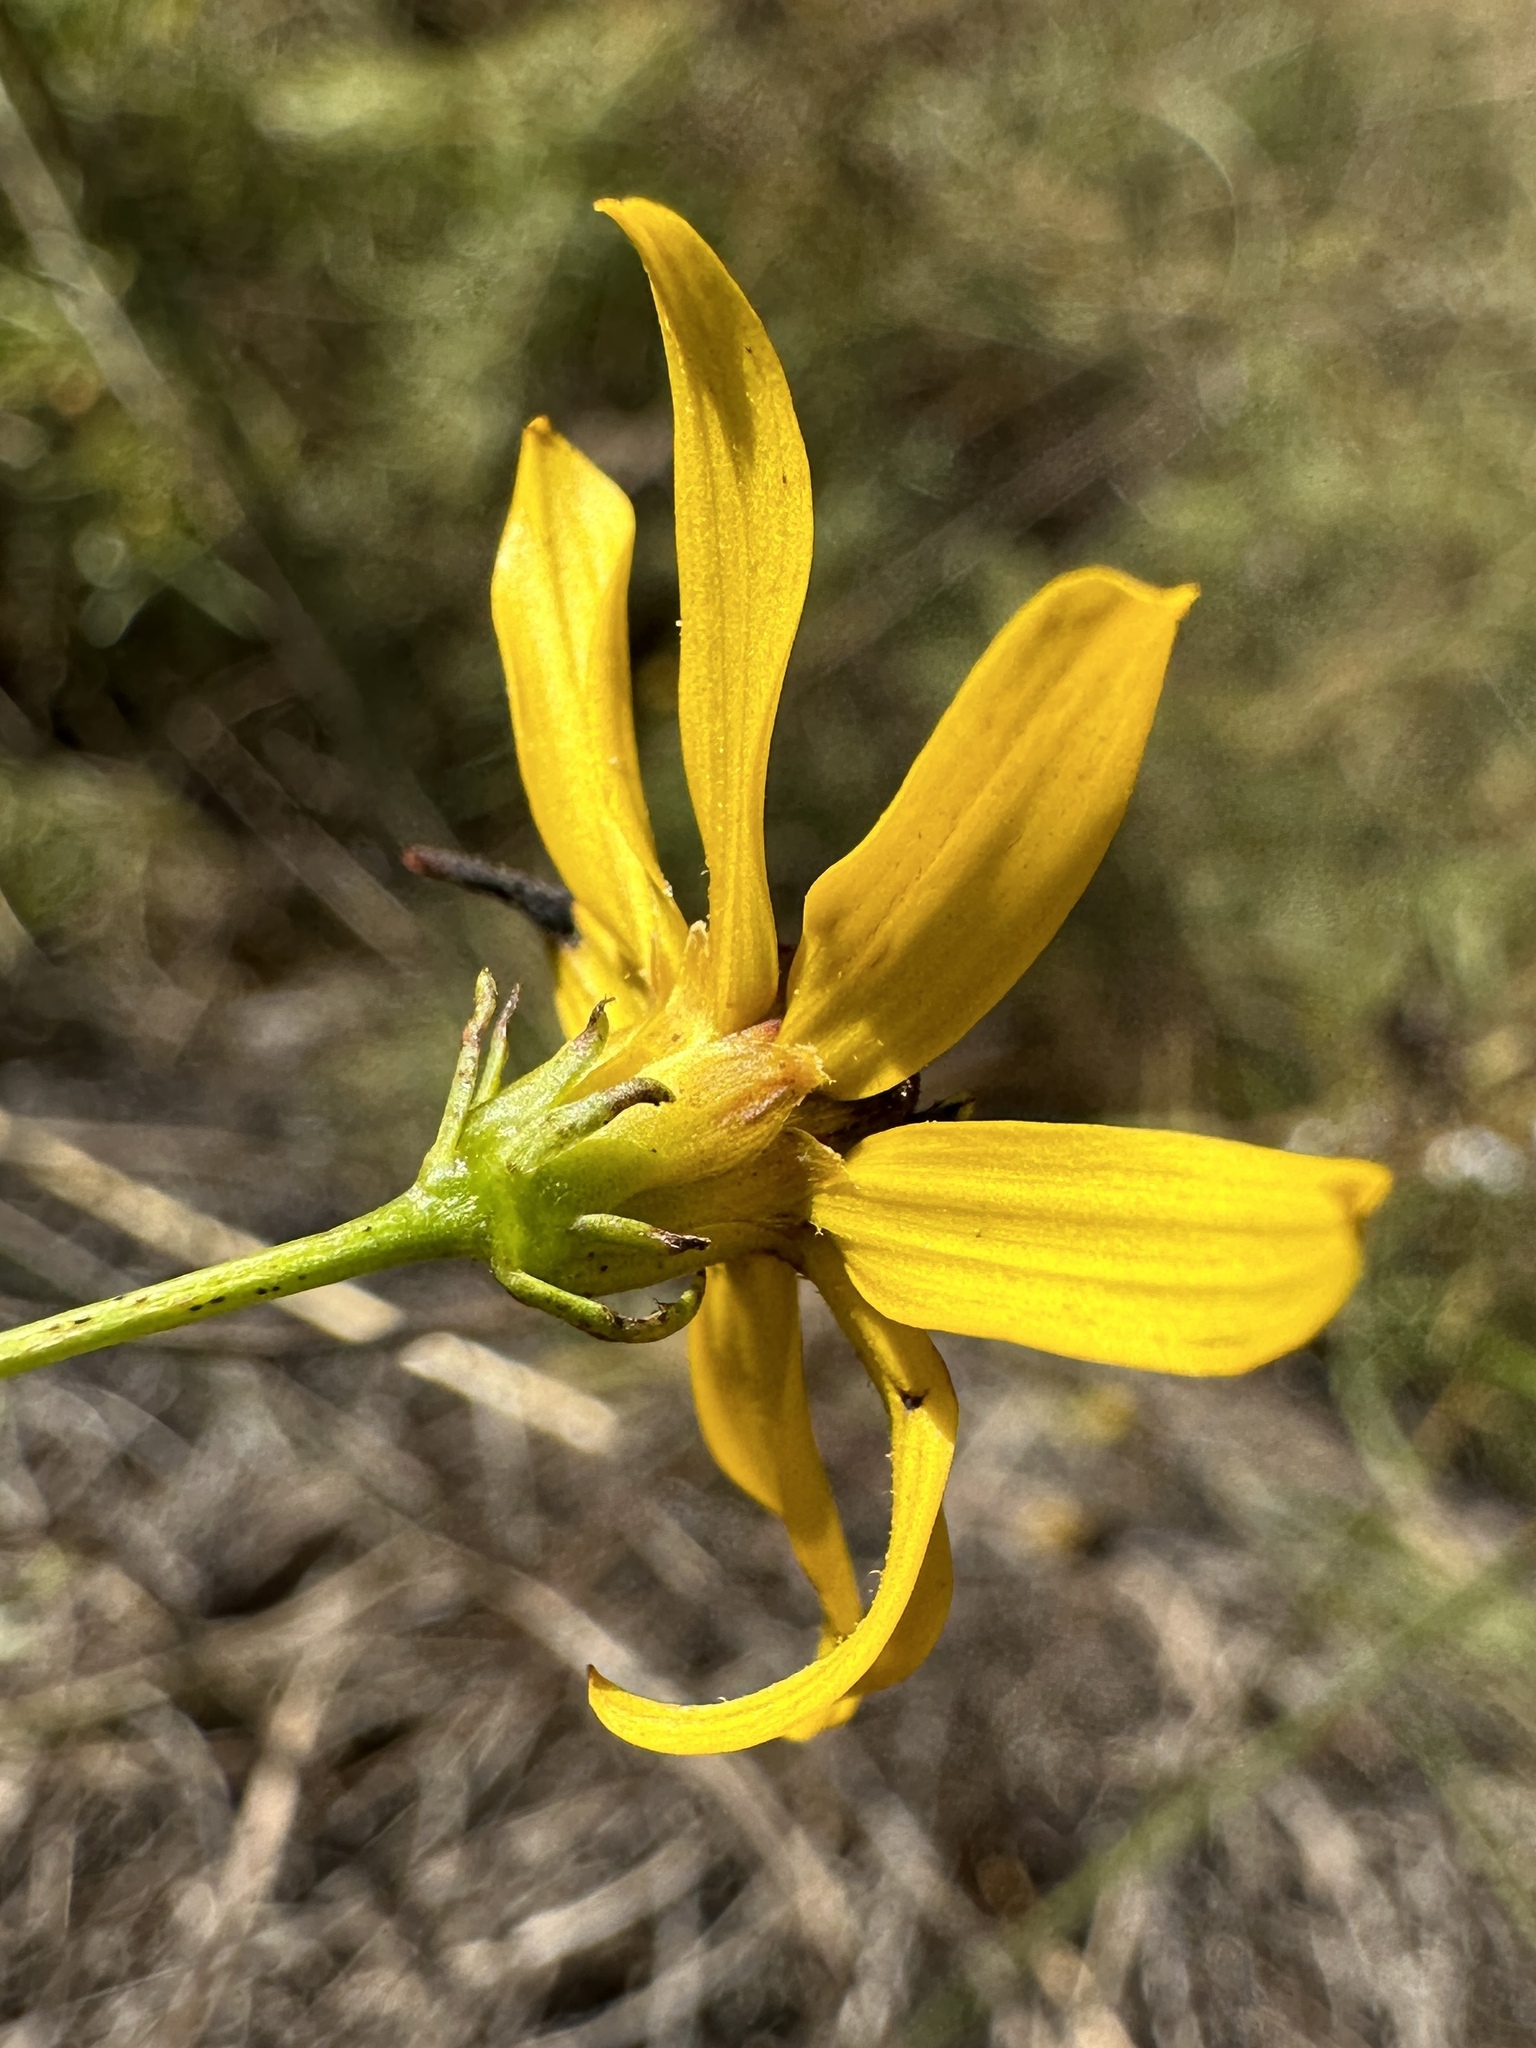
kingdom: Plantae
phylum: Tracheophyta
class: Magnoliopsida
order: Asterales
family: Asteraceae
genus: Coreopsis
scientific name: Coreopsis pulchra
